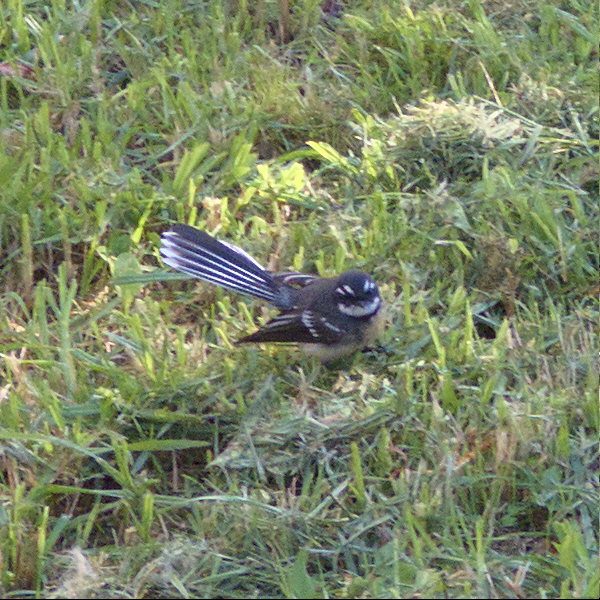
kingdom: Animalia
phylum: Chordata
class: Aves
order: Passeriformes
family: Rhipiduridae
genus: Rhipidura
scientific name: Rhipidura albiscapa
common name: Grey fantail
